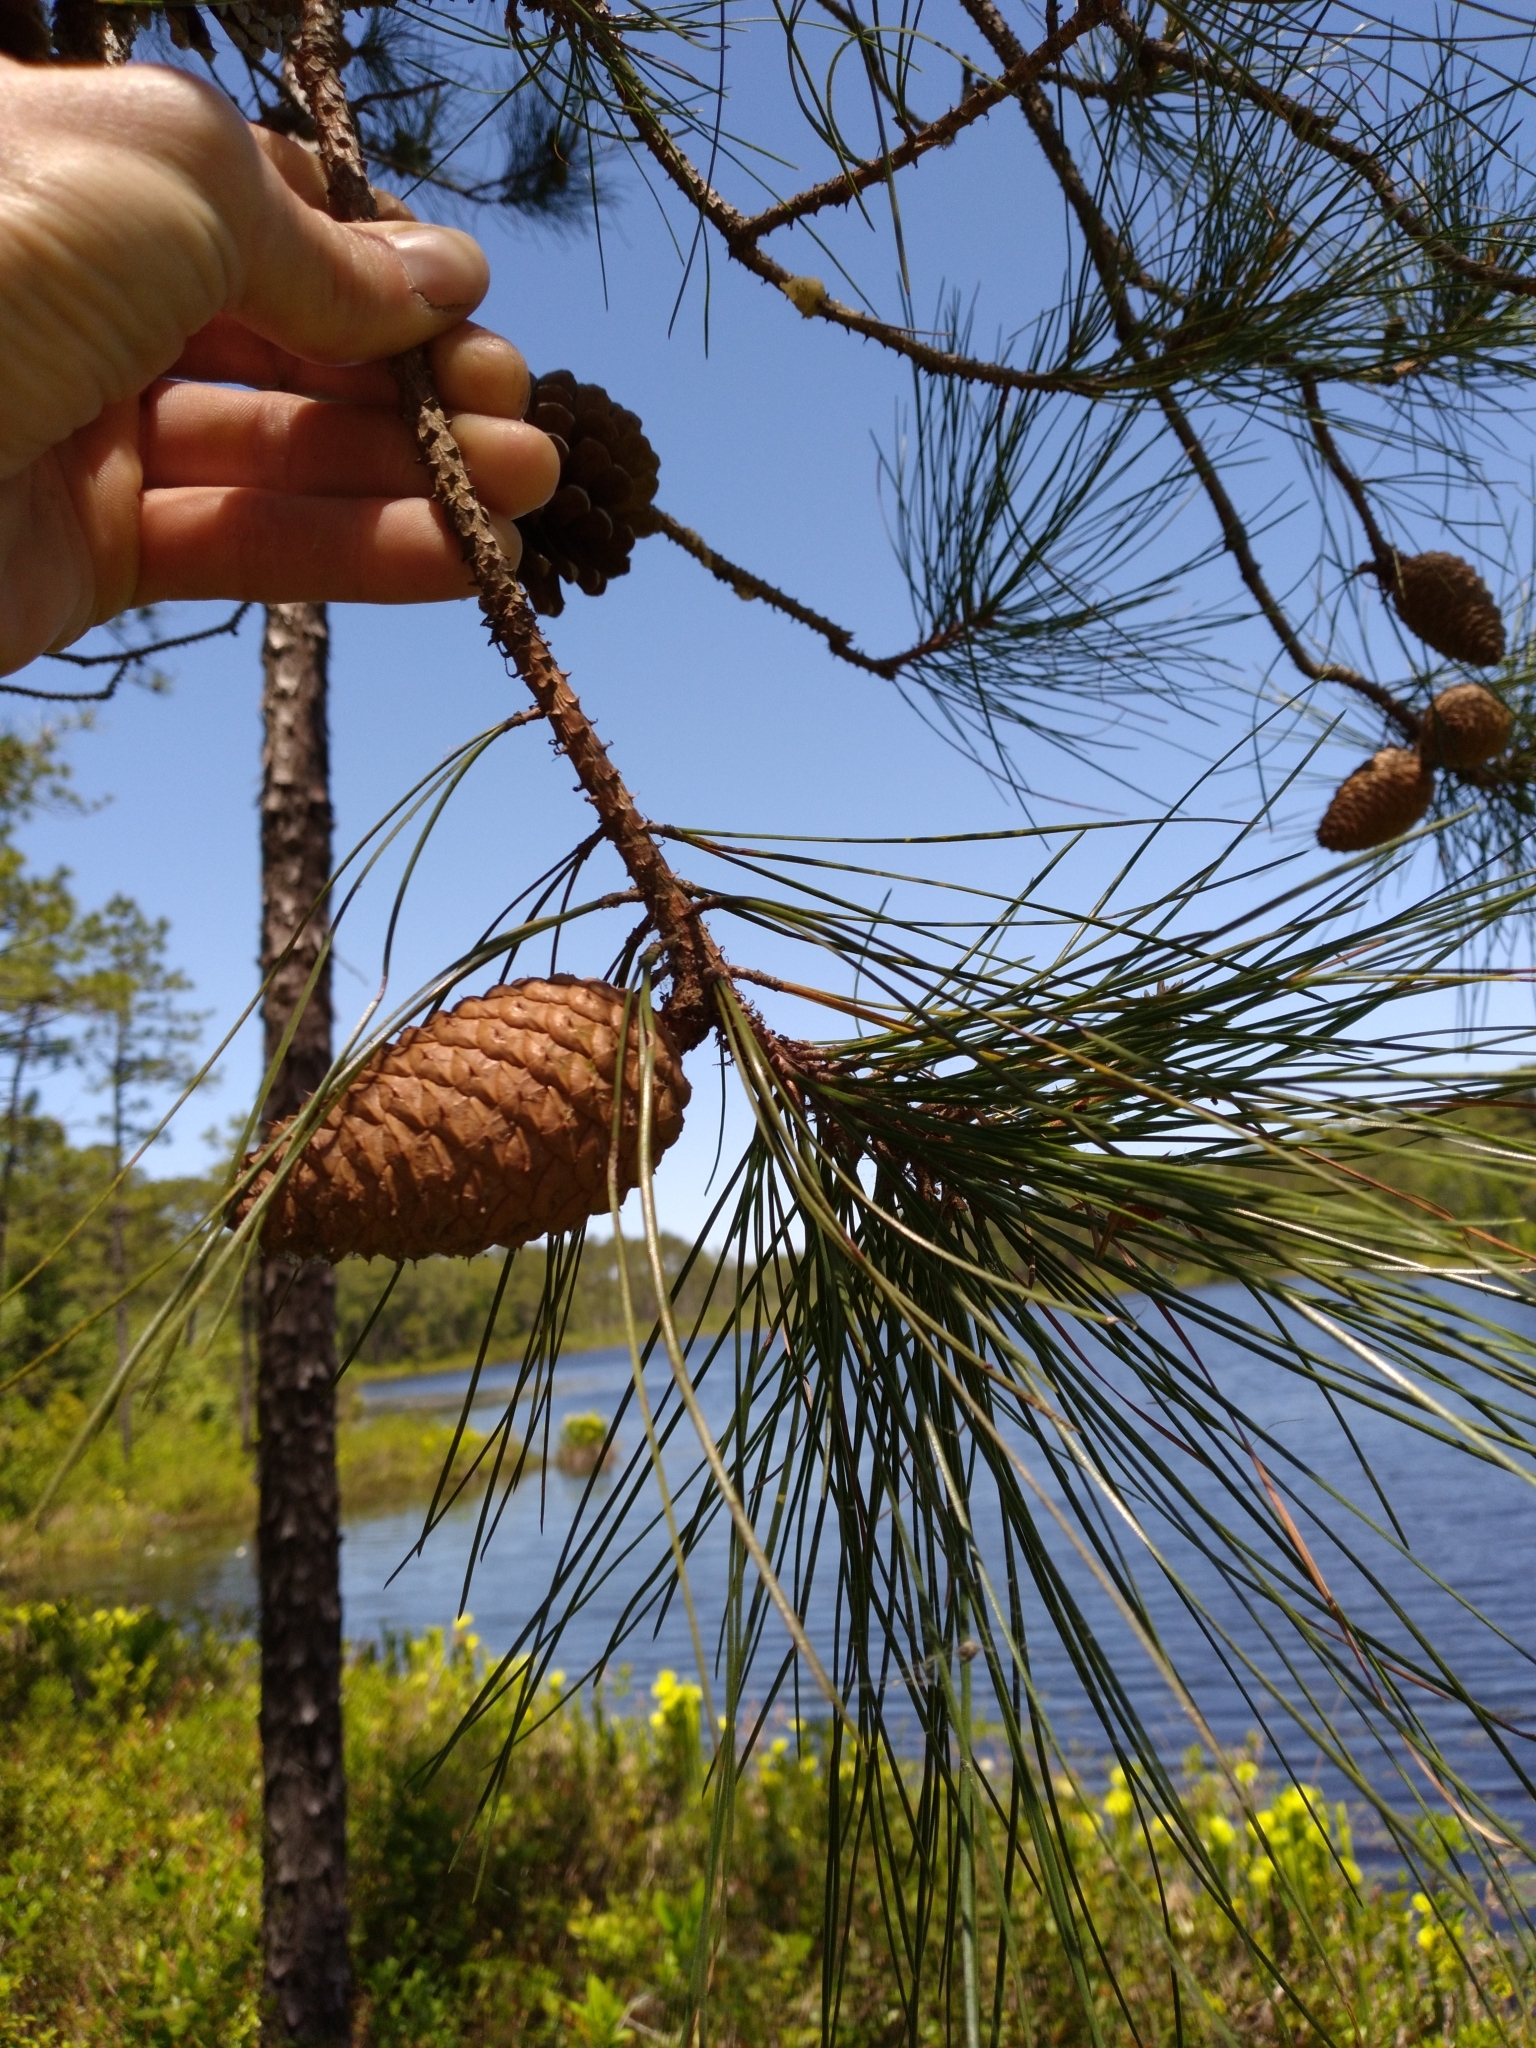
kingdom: Plantae
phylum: Tracheophyta
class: Pinopsida
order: Pinales
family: Pinaceae
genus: Pinus
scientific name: Pinus serotina
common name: Marsh pine
